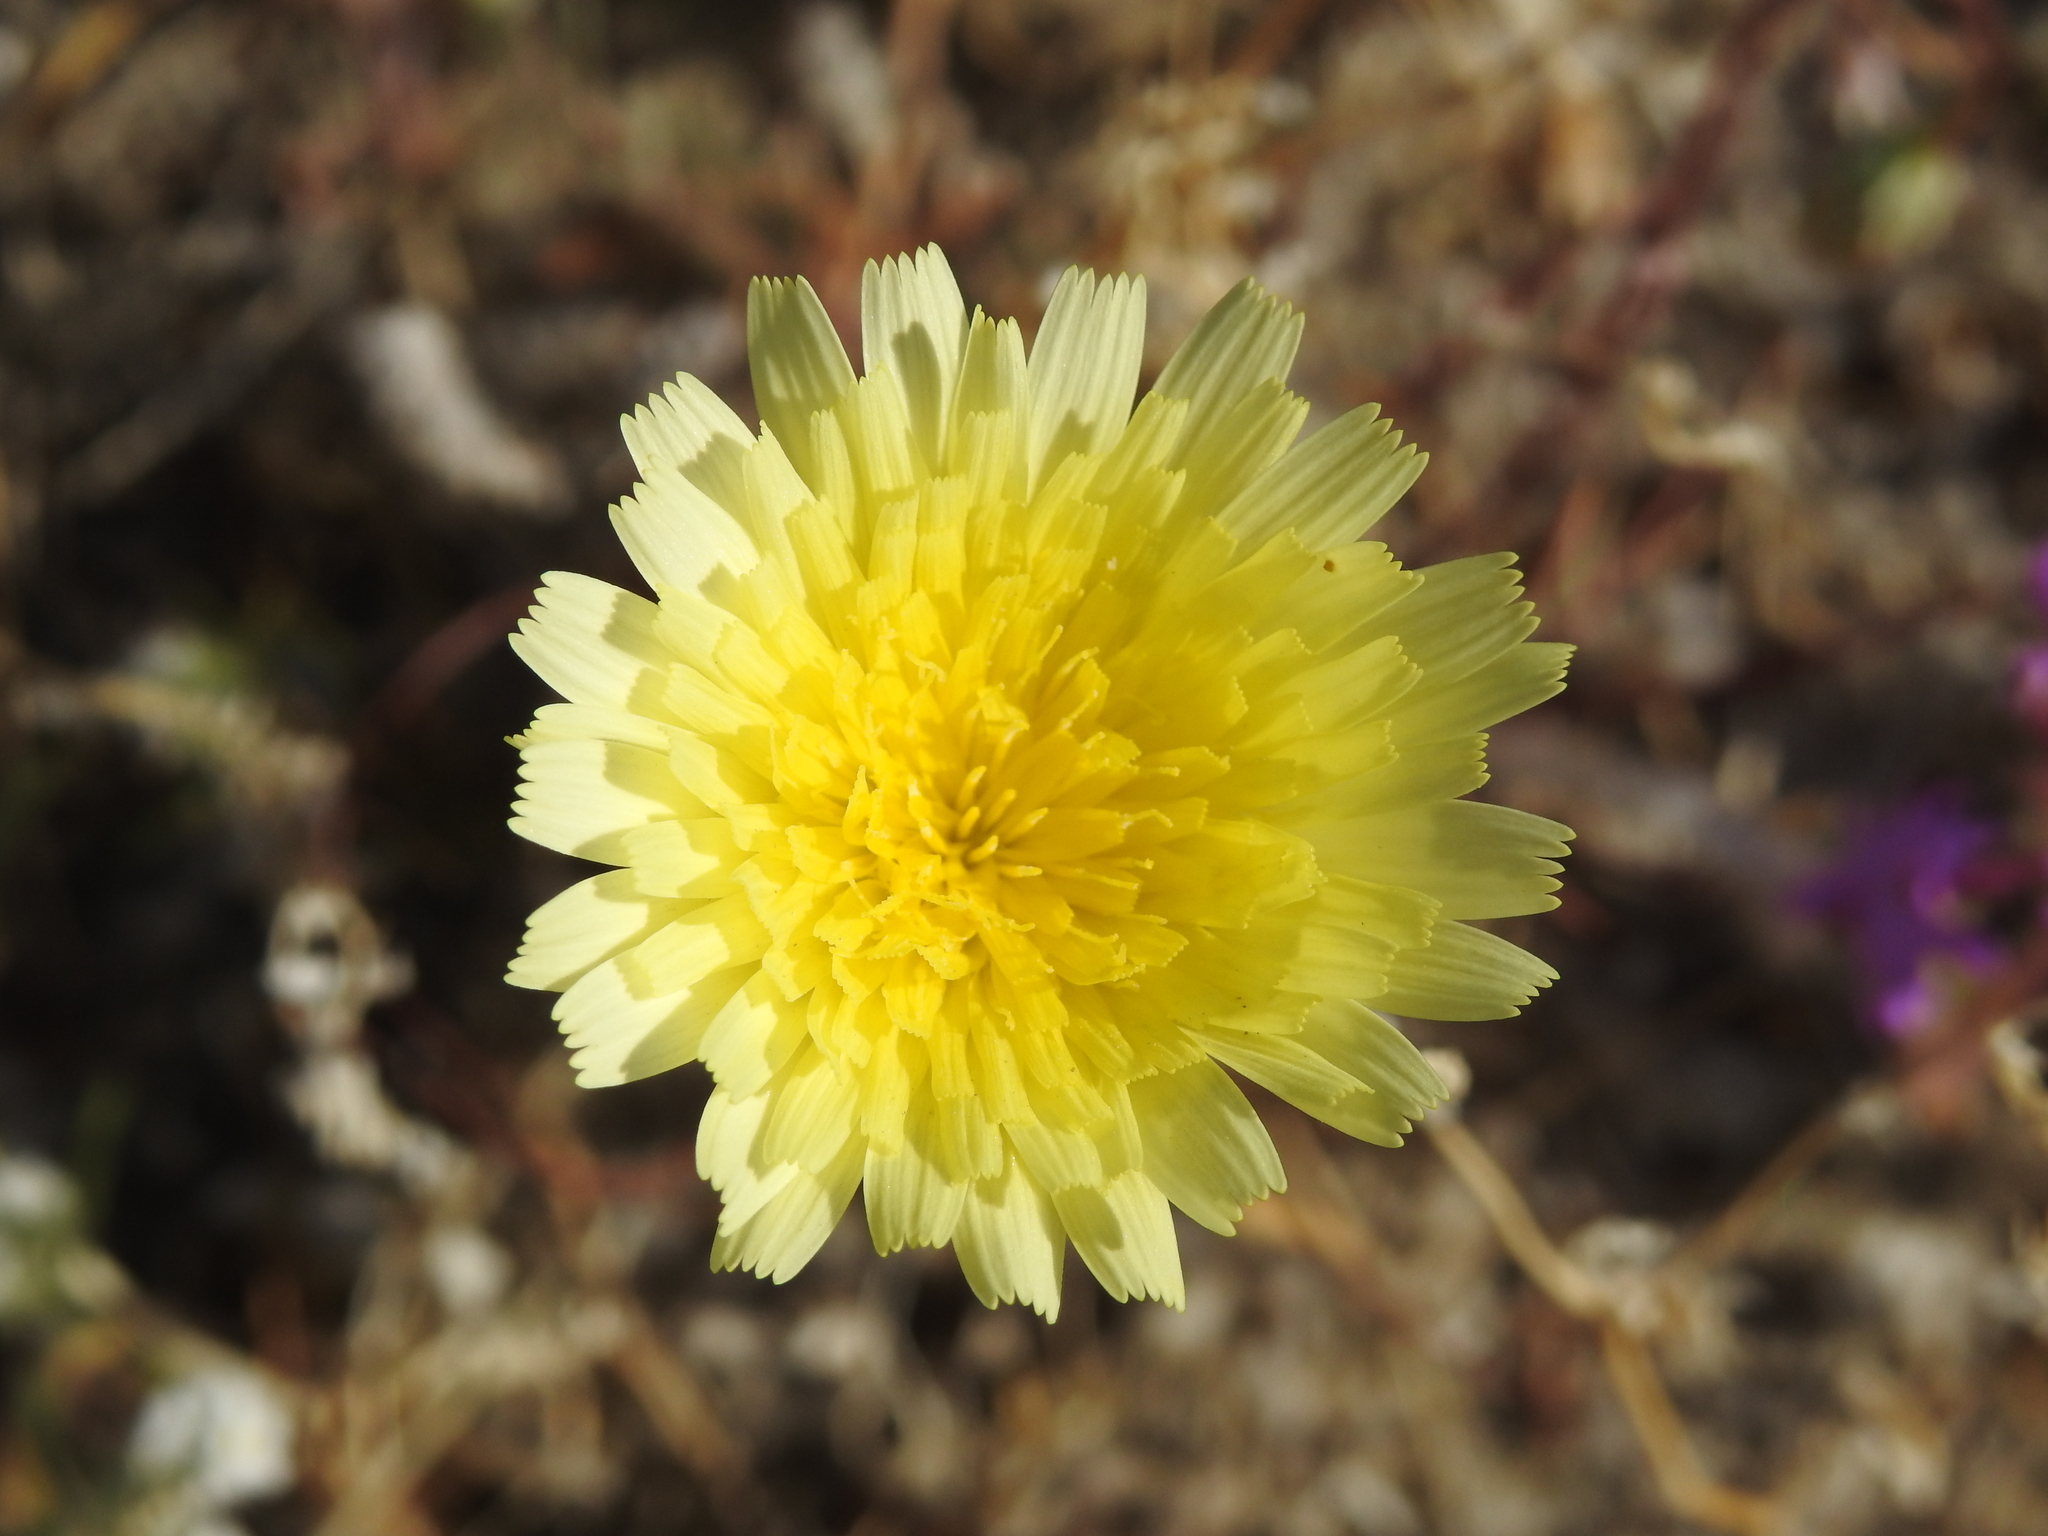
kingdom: Plantae
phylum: Tracheophyta
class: Magnoliopsida
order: Asterales
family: Asteraceae
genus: Malacothrix
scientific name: Malacothrix glabrata
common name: Smooth desert-dandelion
